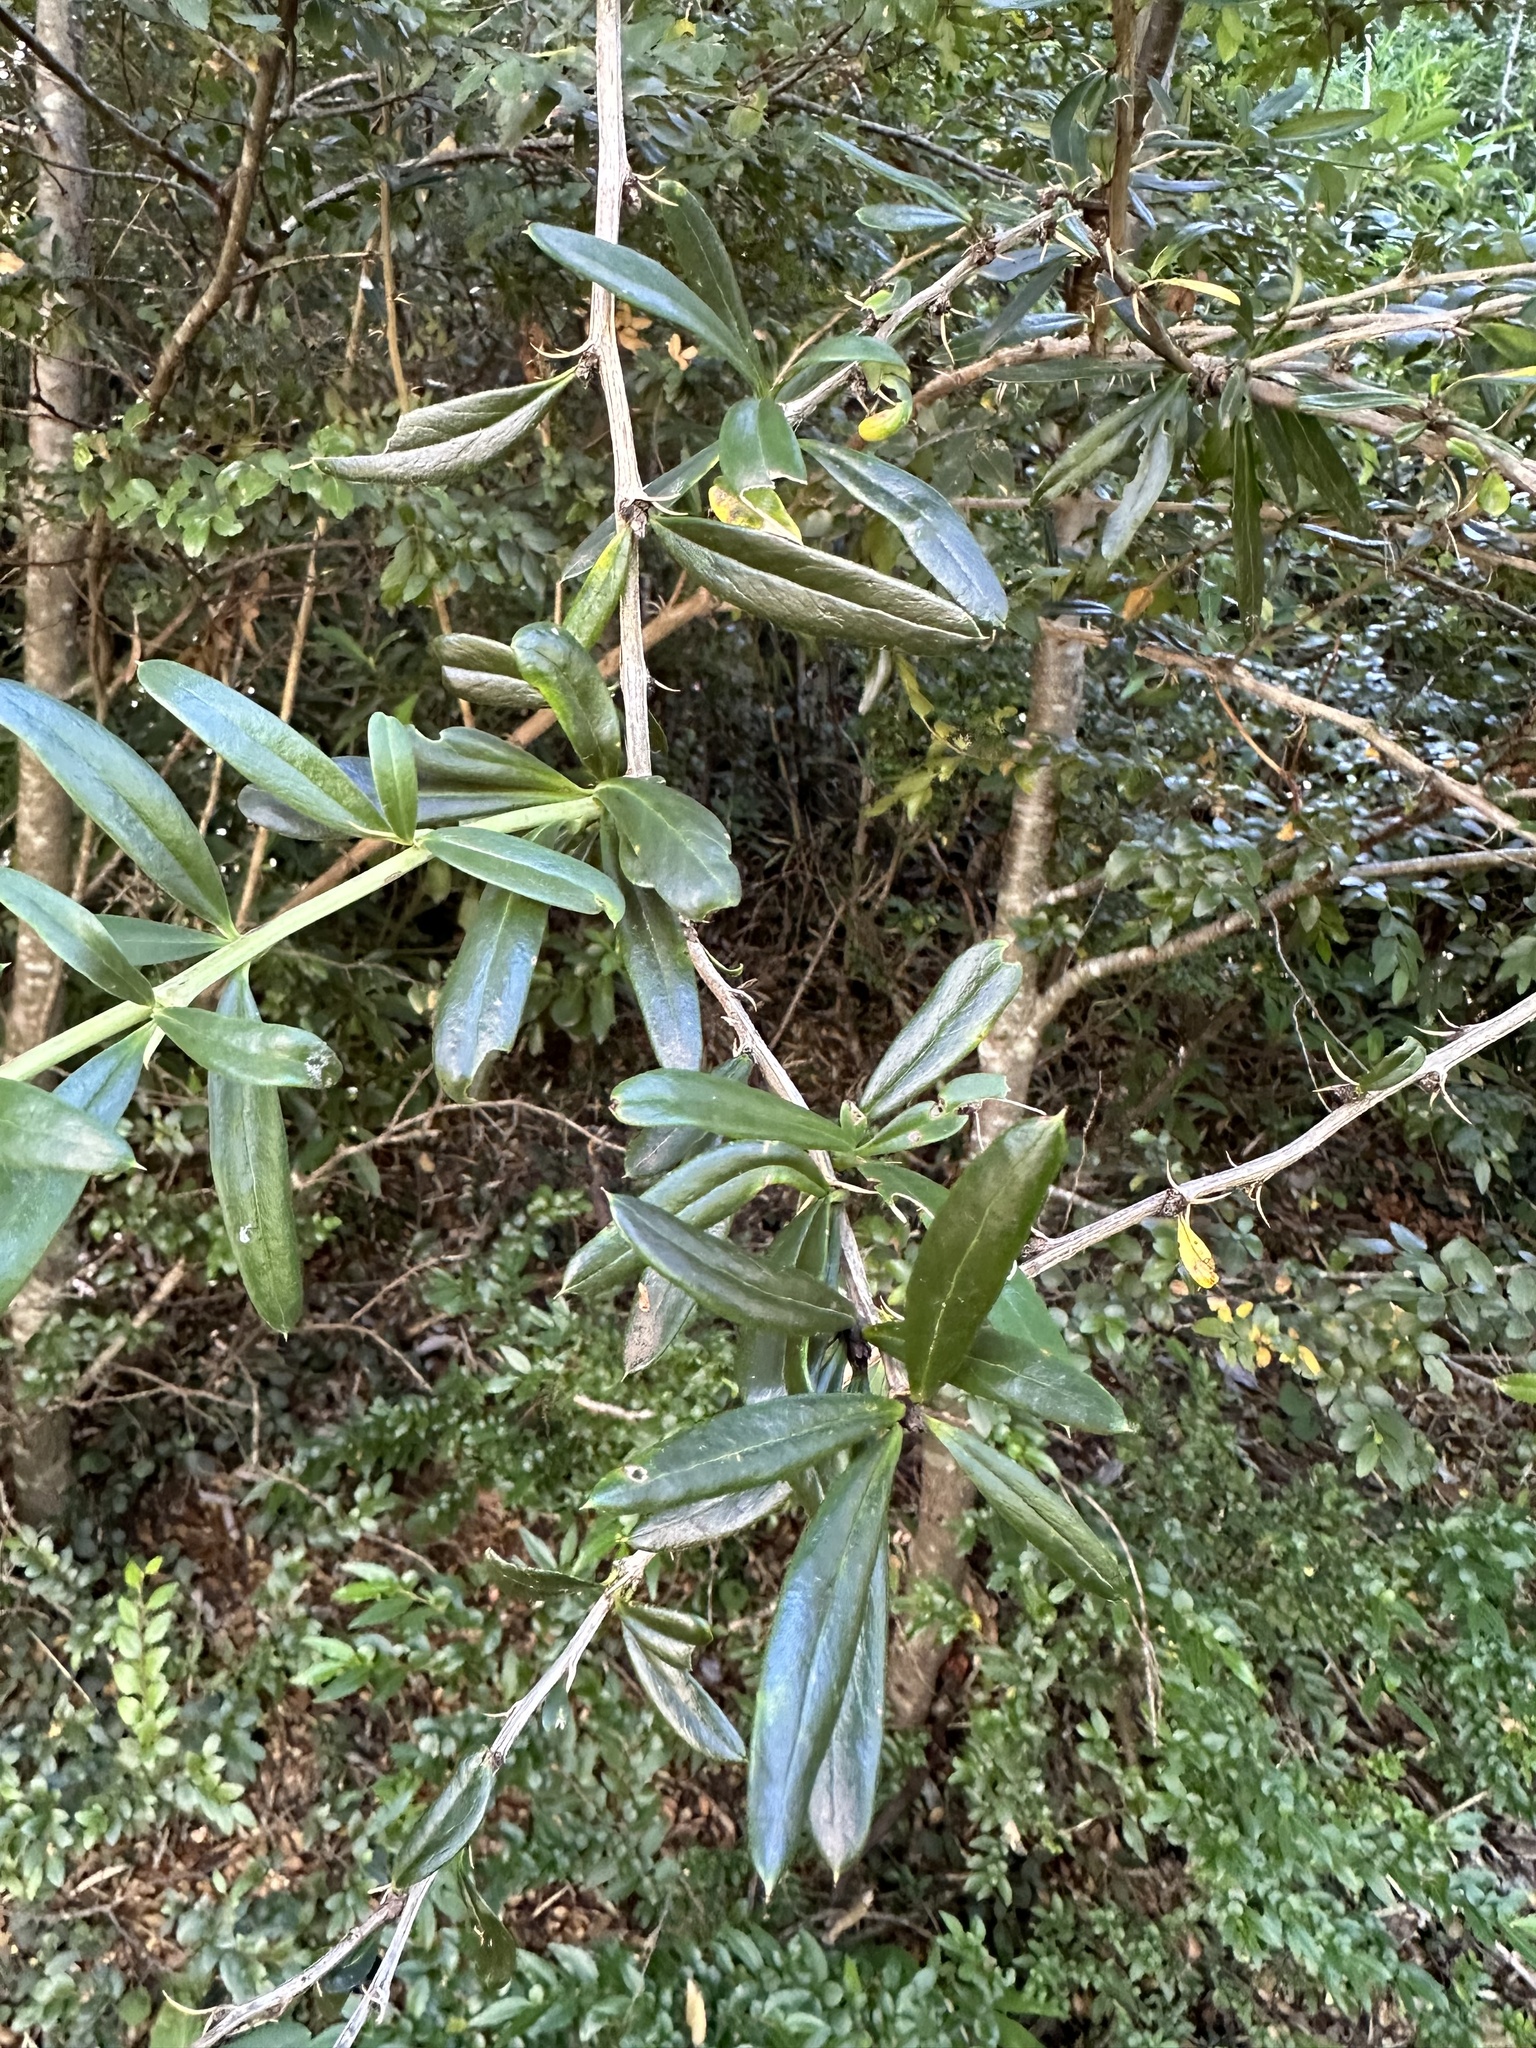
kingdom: Plantae
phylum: Tracheophyta
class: Magnoliopsida
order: Ranunculales
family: Berberidaceae
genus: Berberis
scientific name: Berberis trigona
